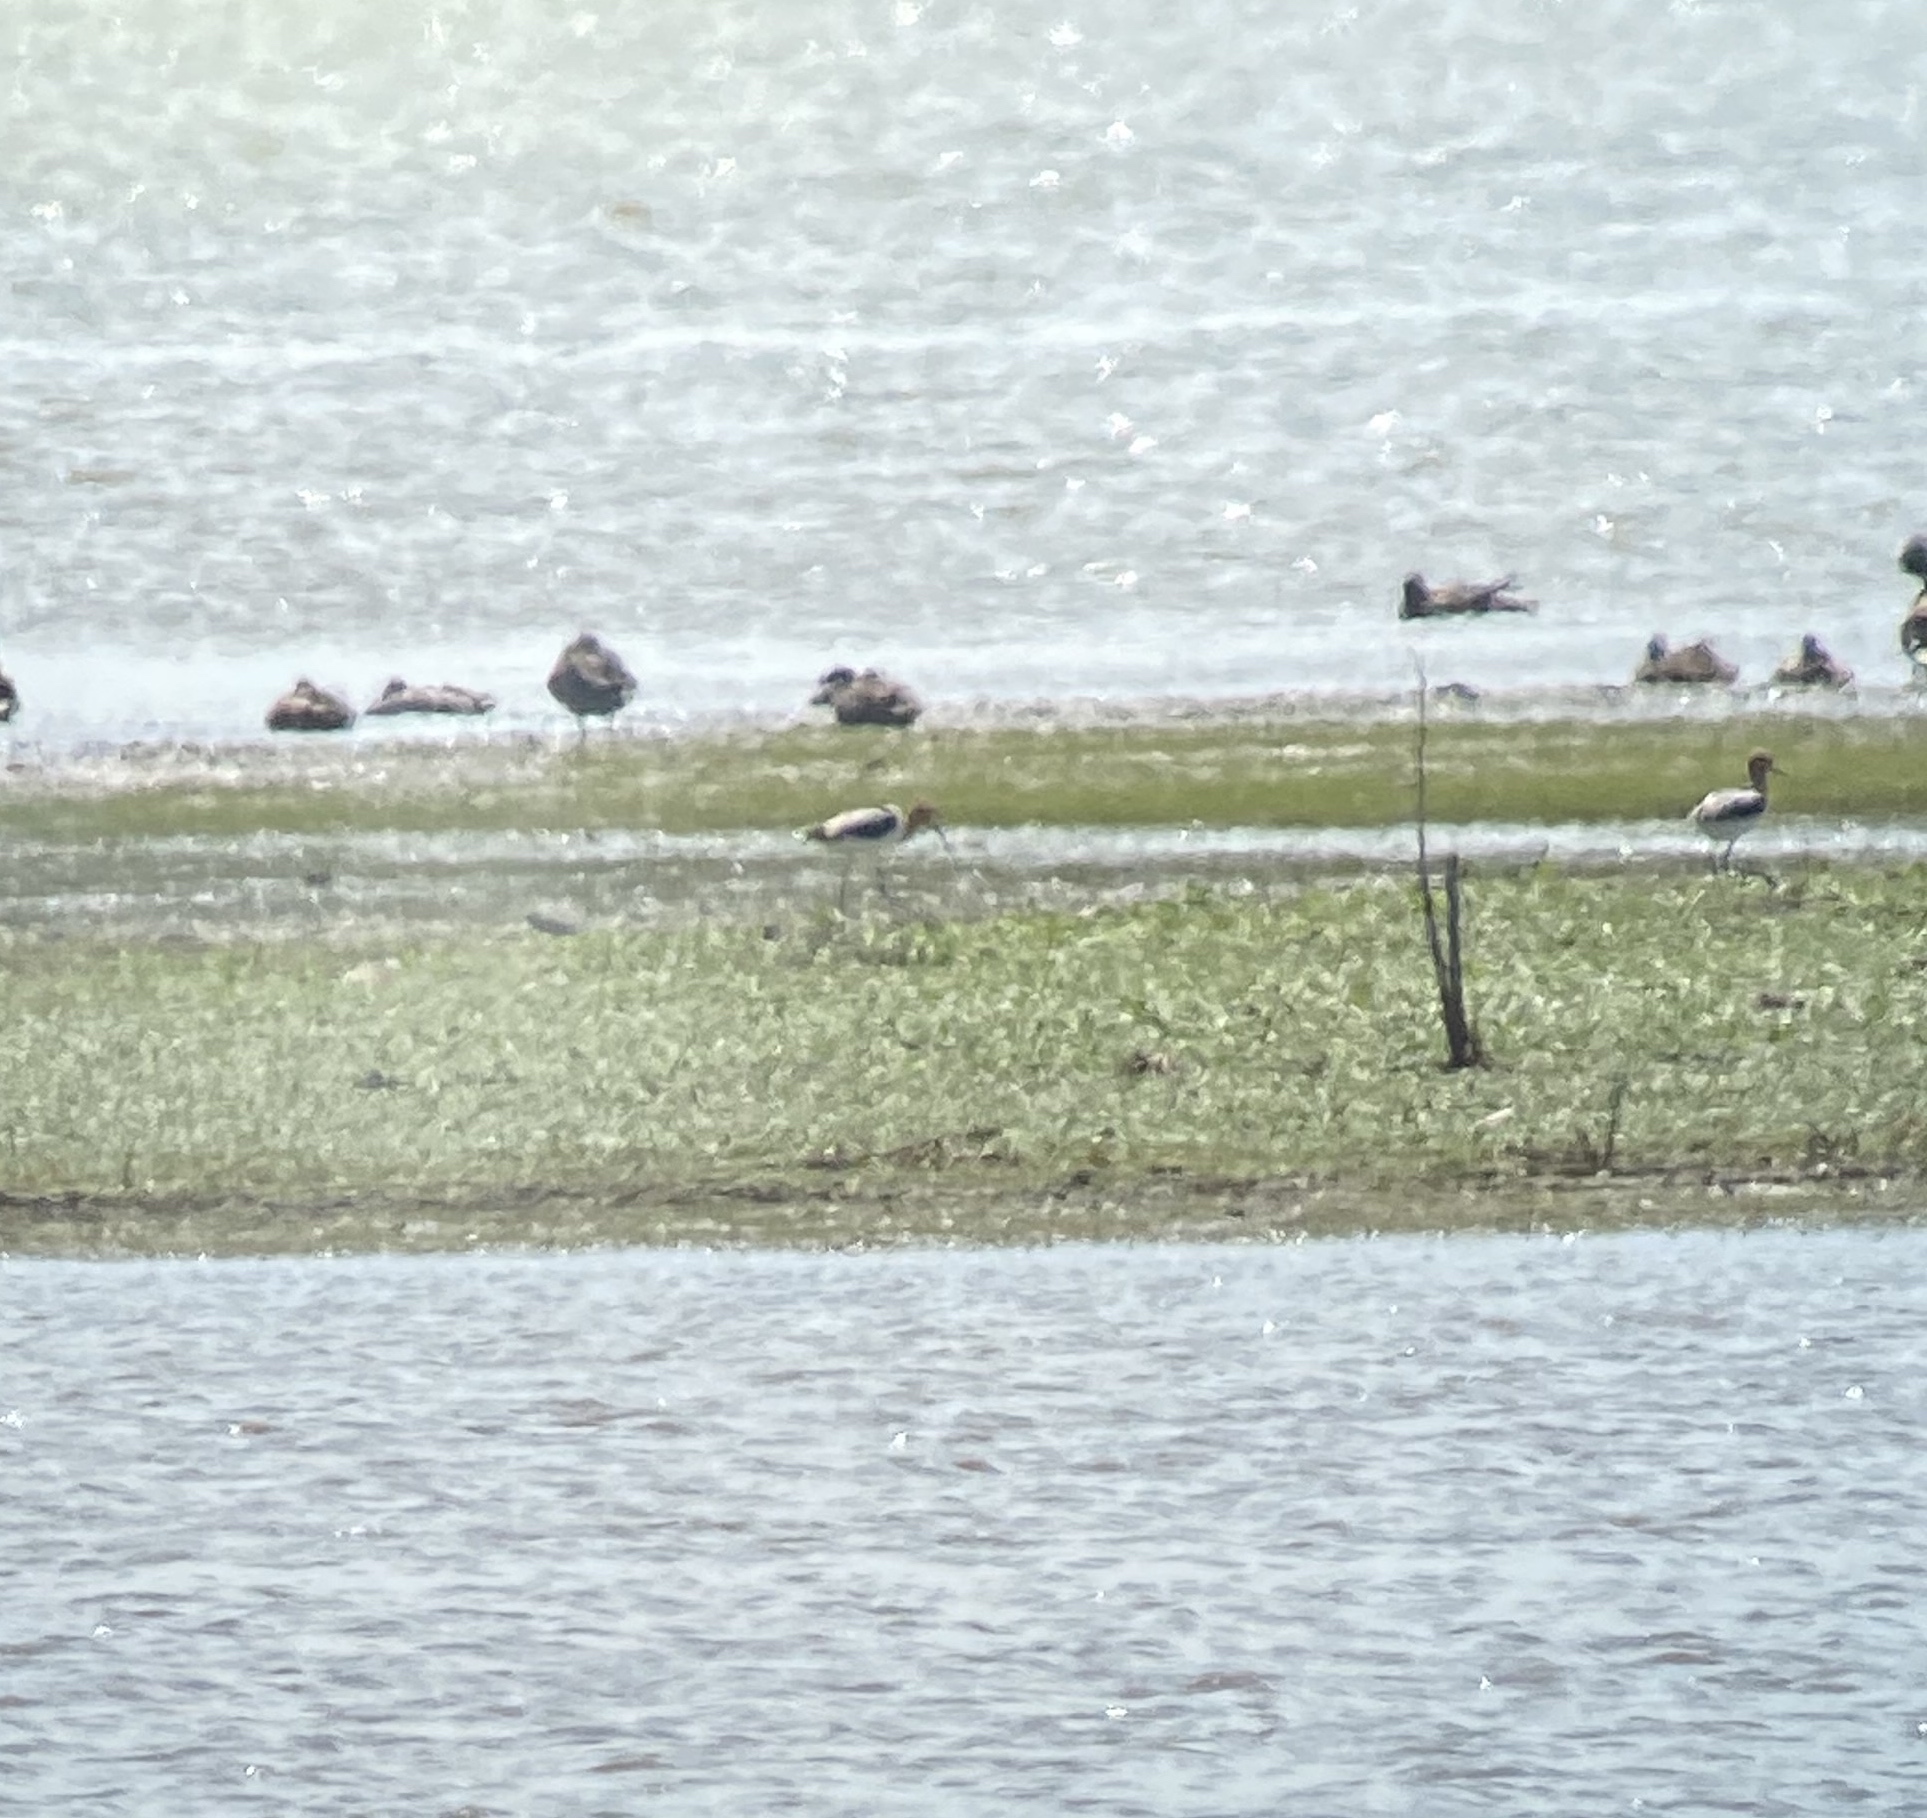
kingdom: Animalia
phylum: Chordata
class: Aves
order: Charadriiformes
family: Recurvirostridae
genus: Recurvirostra
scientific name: Recurvirostra americana
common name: American avocet
